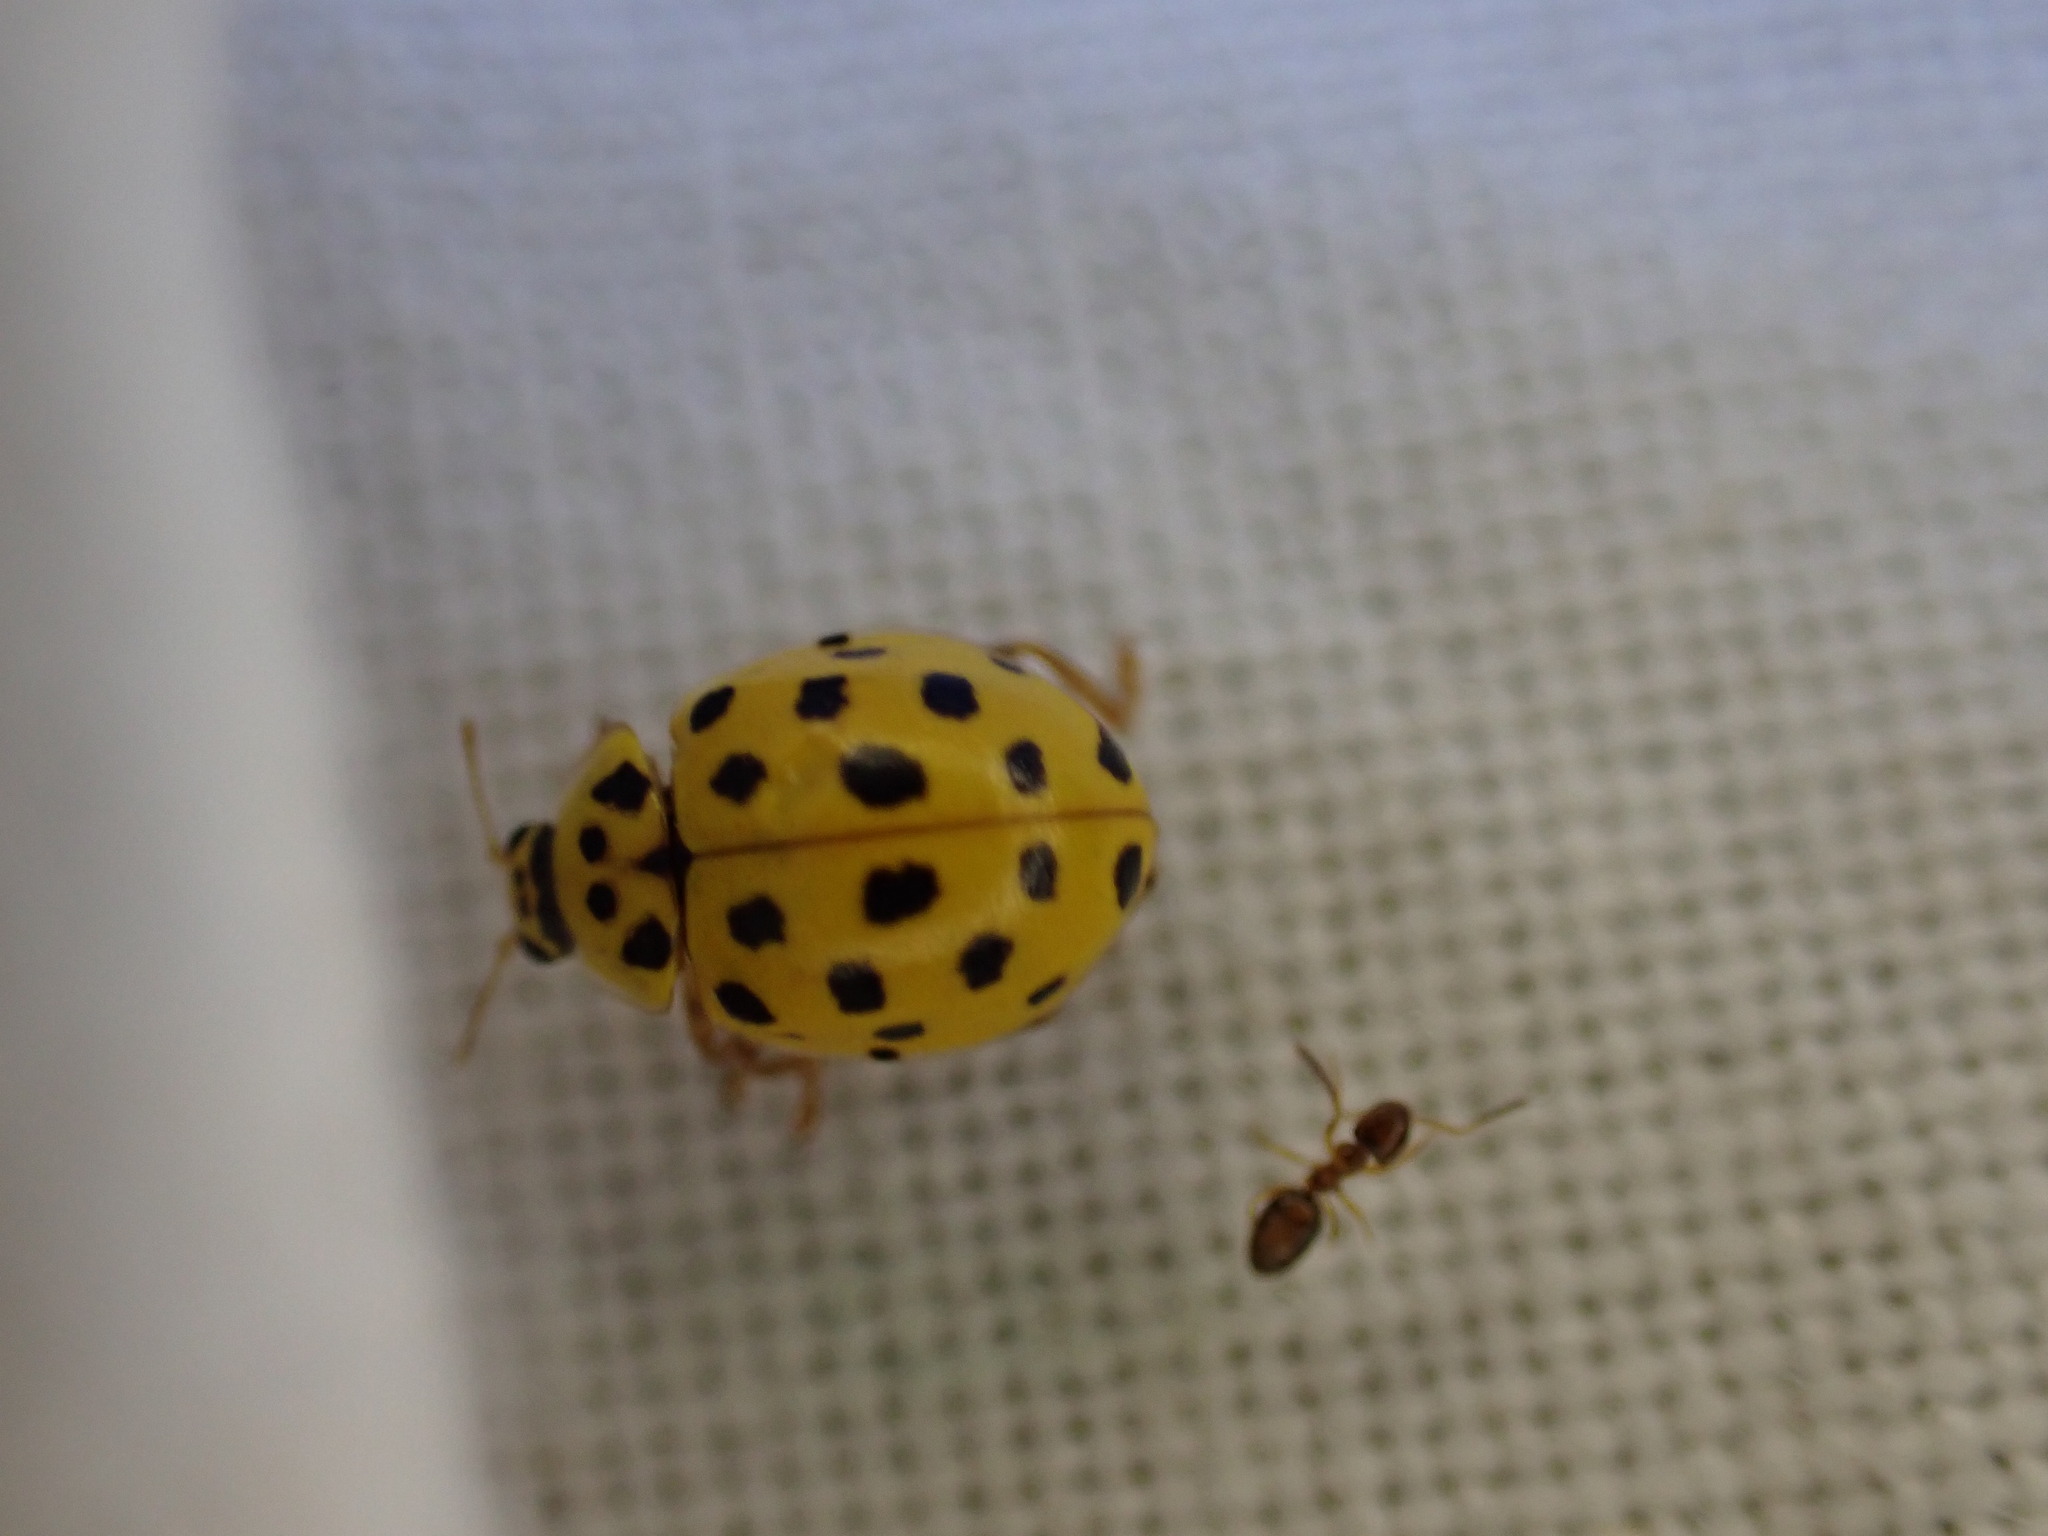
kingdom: Animalia
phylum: Arthropoda
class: Insecta
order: Coleoptera
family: Coccinellidae
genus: Psyllobora
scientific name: Psyllobora vigintiduopunctata
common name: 22-spot ladybird
